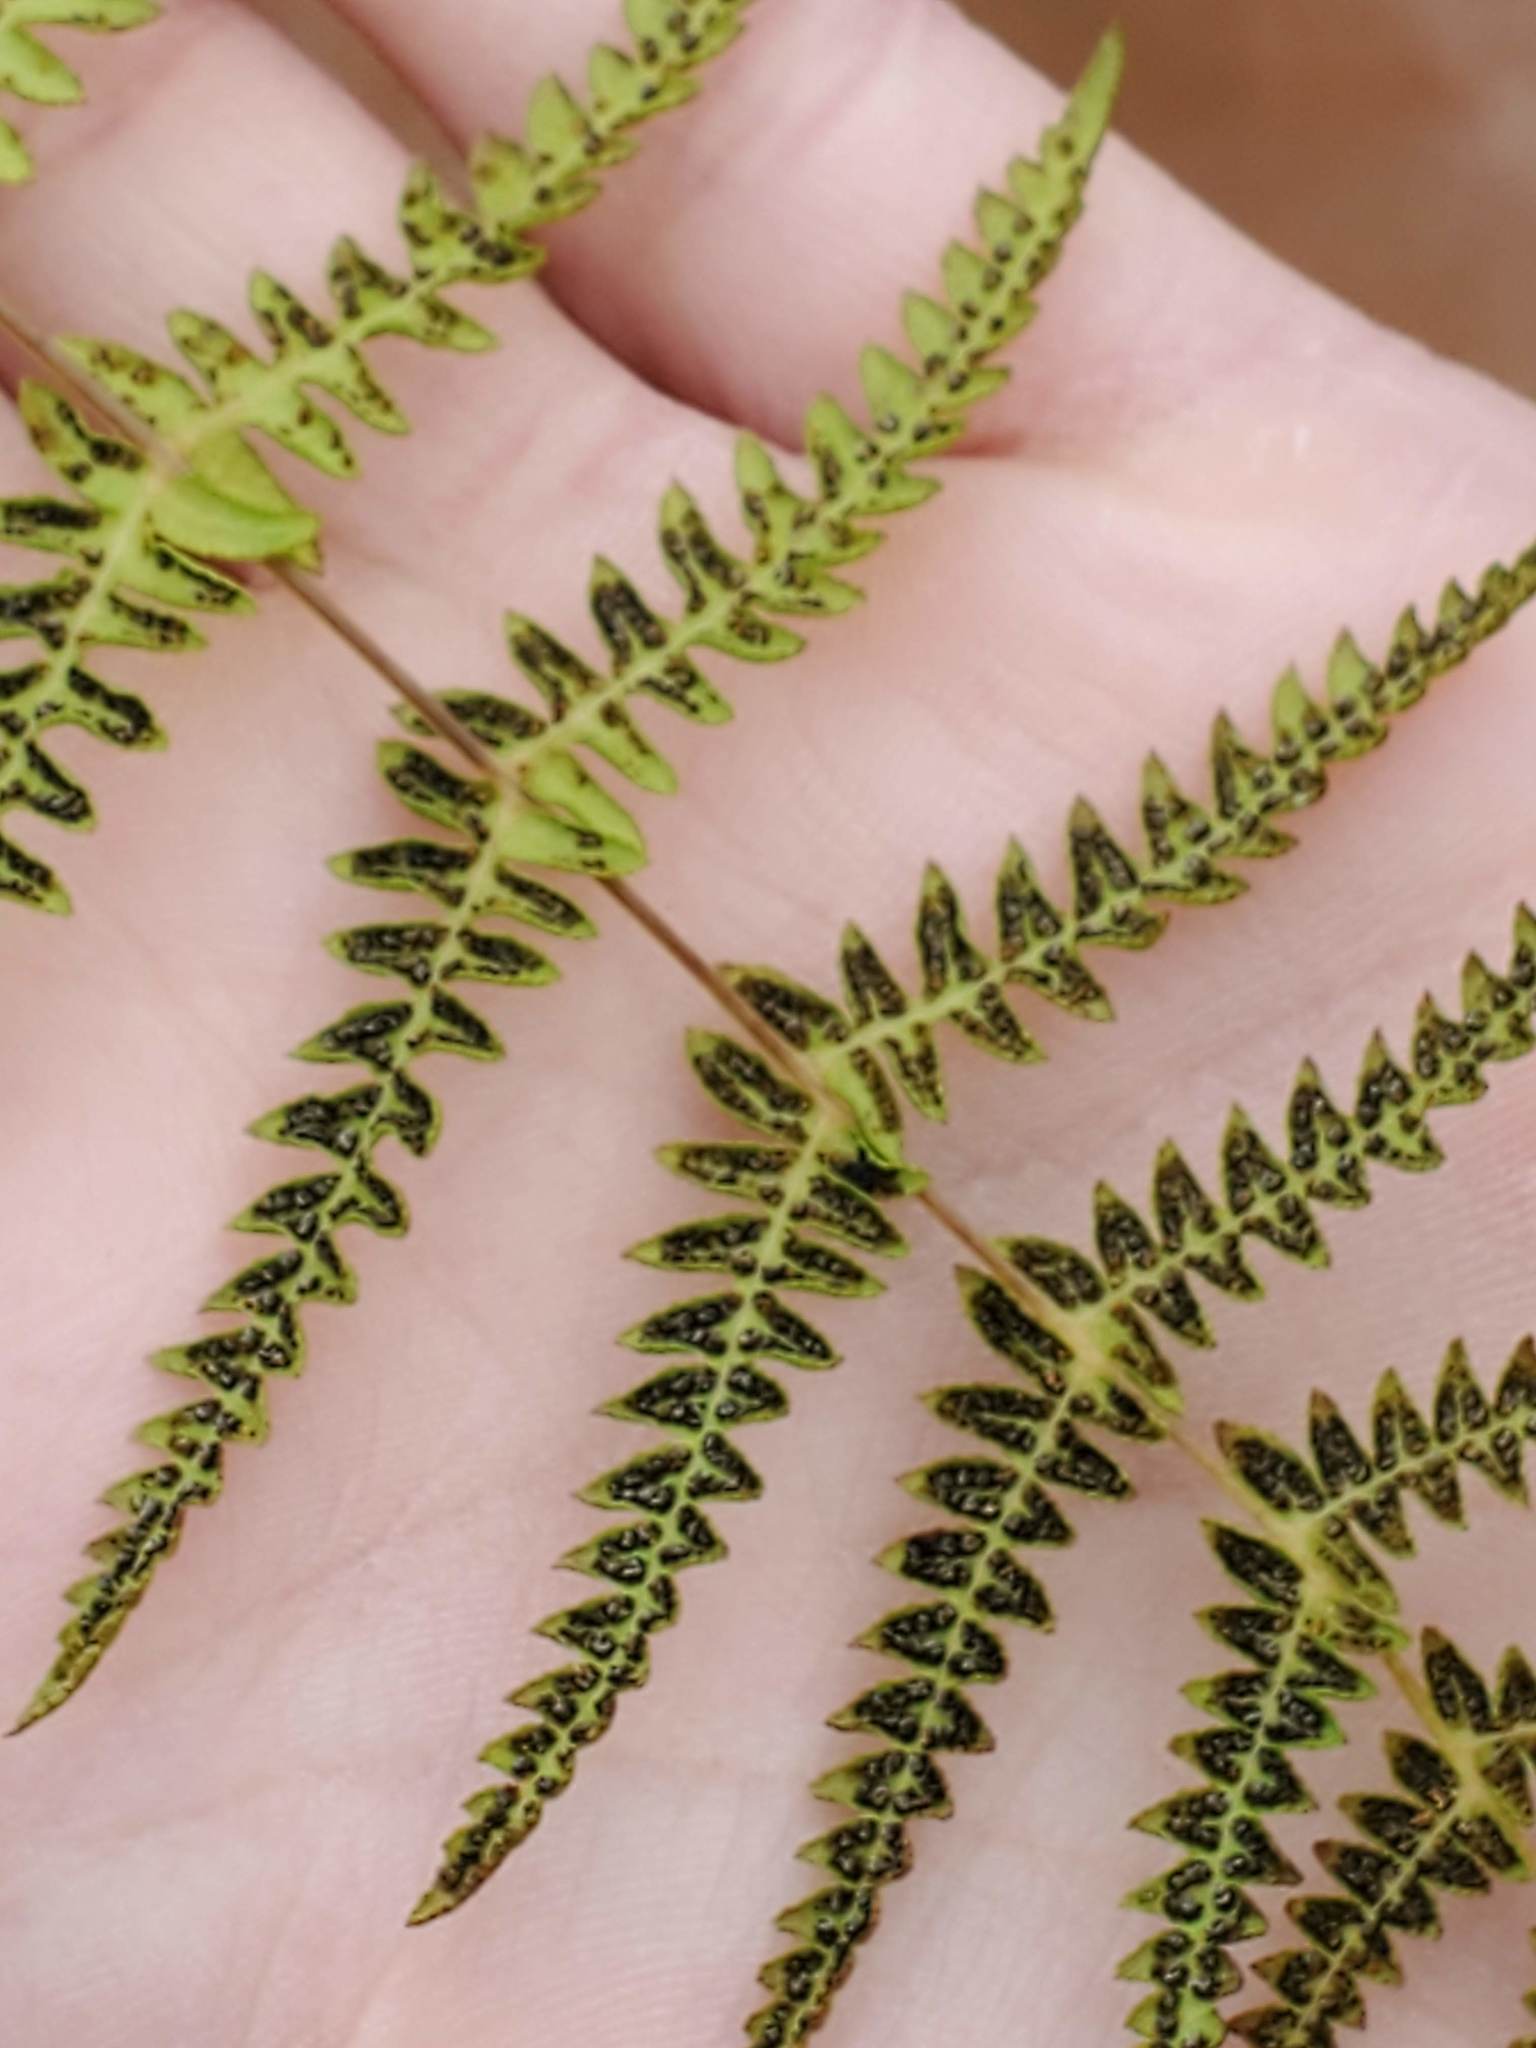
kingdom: Plantae
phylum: Tracheophyta
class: Polypodiopsida
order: Polypodiales
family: Thelypteridaceae
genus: Thelypteris
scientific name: Thelypteris palustris
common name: Marsh fern
